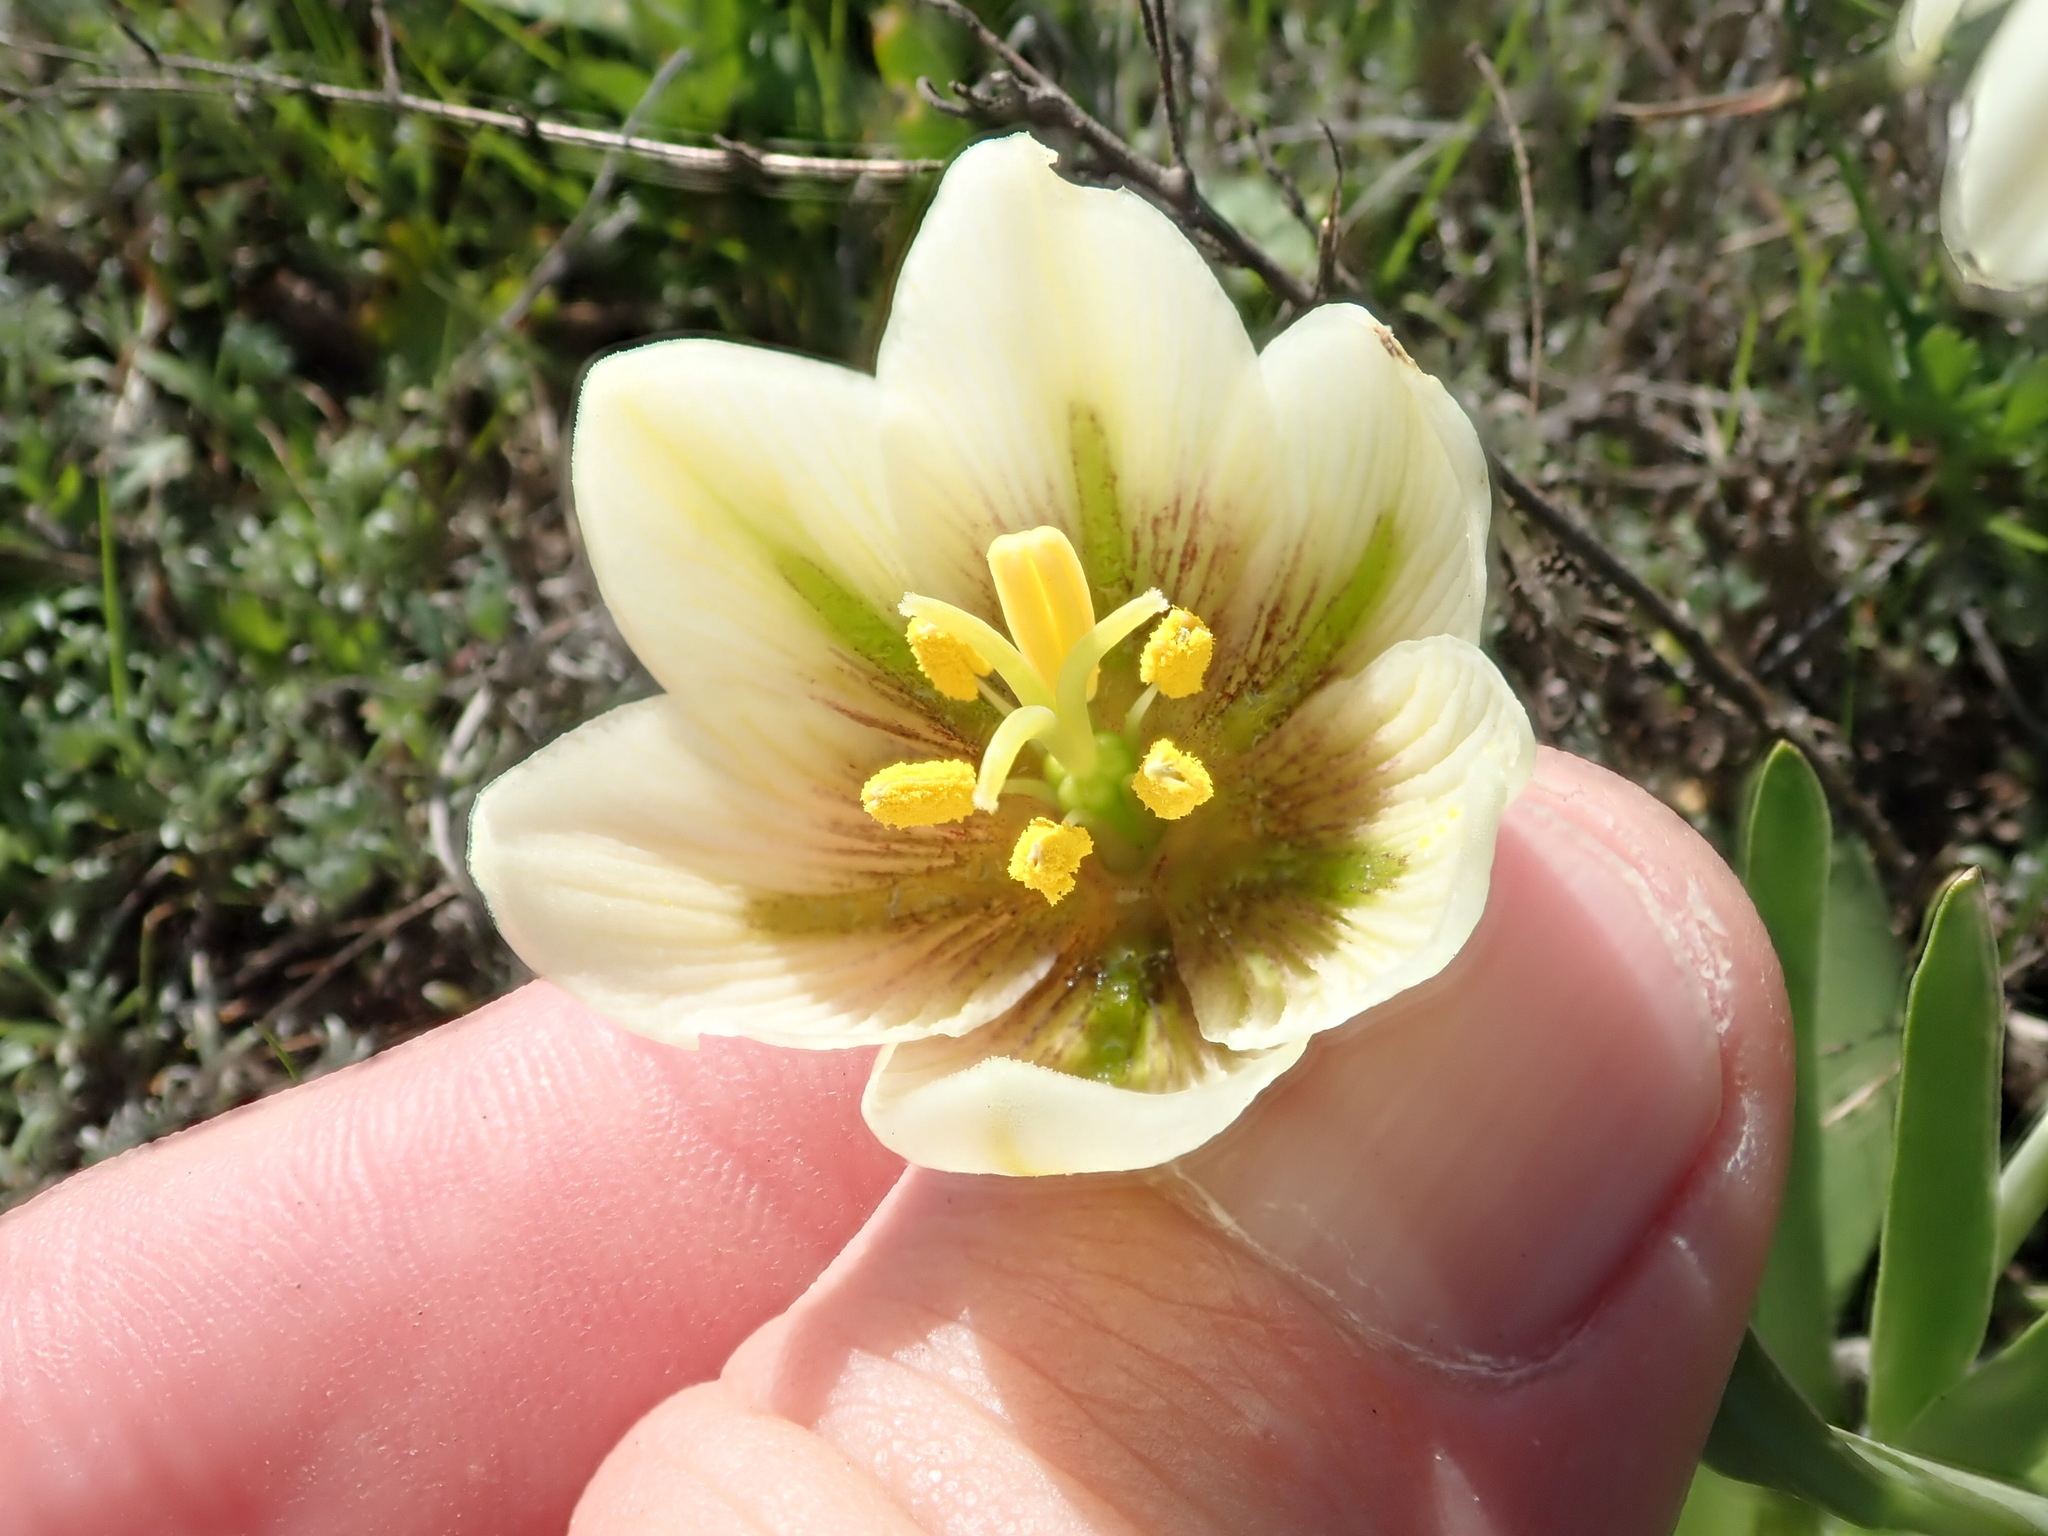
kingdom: Plantae
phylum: Tracheophyta
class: Liliopsida
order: Liliales
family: Liliaceae
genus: Fritillaria
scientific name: Fritillaria liliacea
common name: Fragrant fritillary
